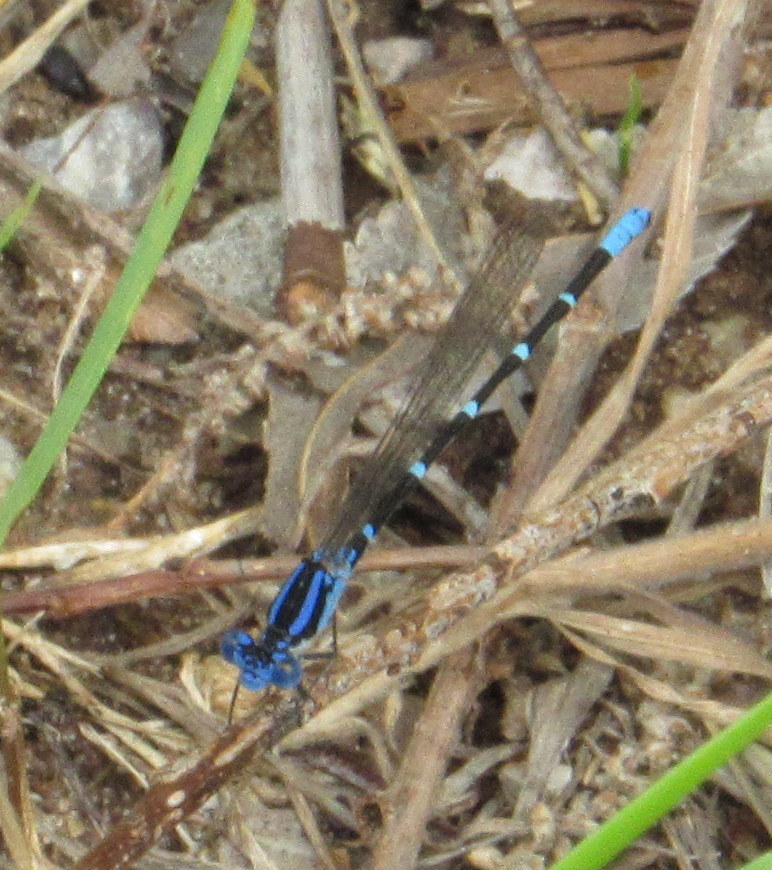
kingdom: Animalia
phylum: Arthropoda
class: Insecta
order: Odonata
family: Coenagrionidae
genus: Argia
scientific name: Argia sedula
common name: Blue-ringed dancer
